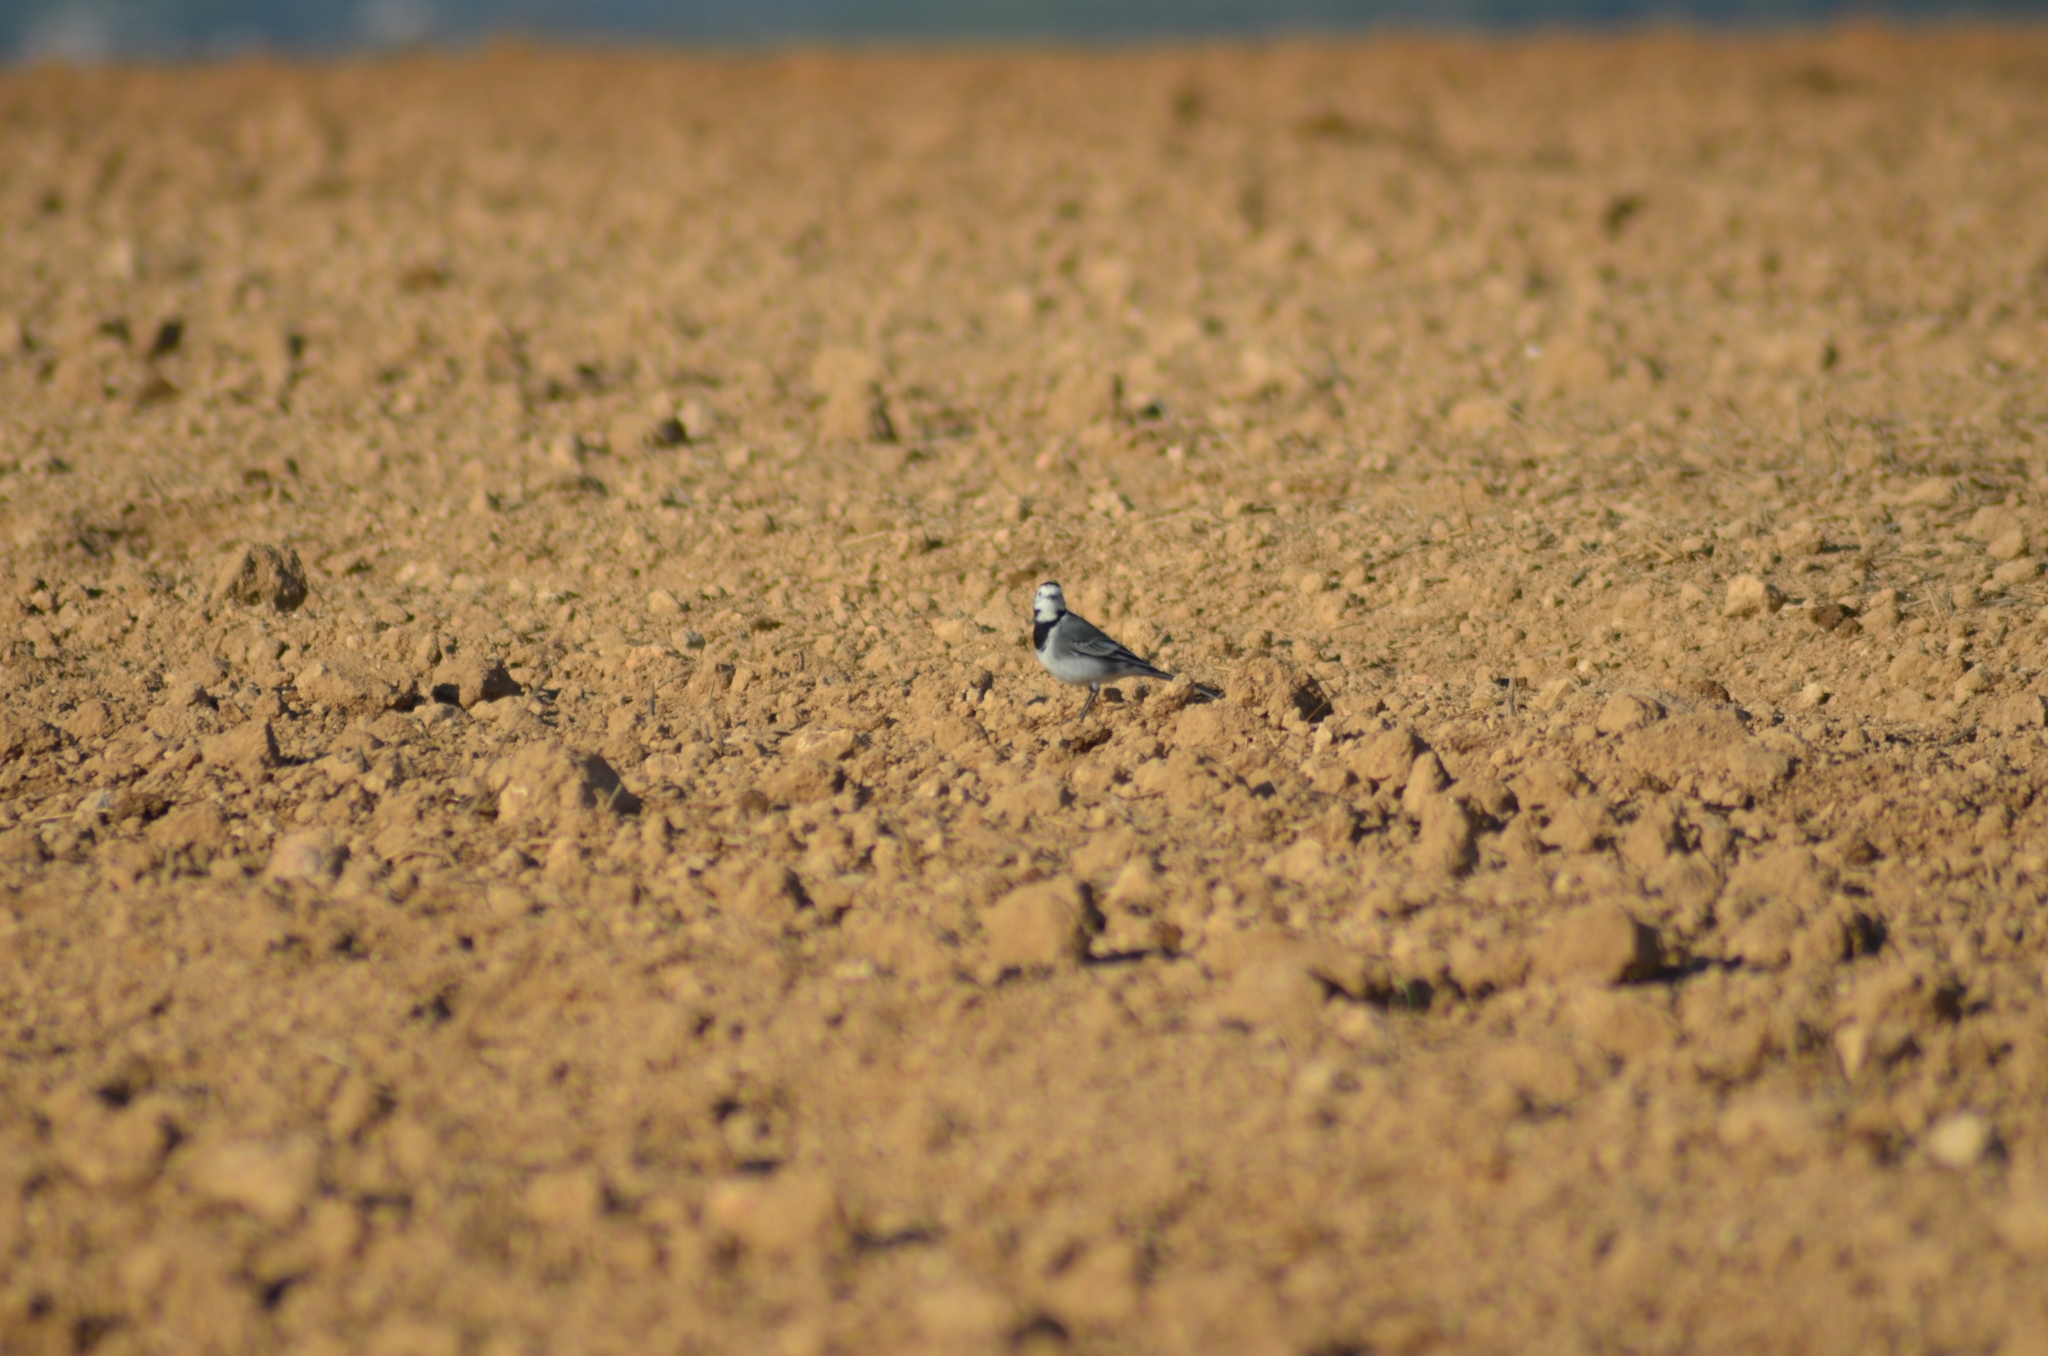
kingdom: Animalia
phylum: Chordata
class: Aves
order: Passeriformes
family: Motacillidae
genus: Motacilla
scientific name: Motacilla alba
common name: White wagtail
